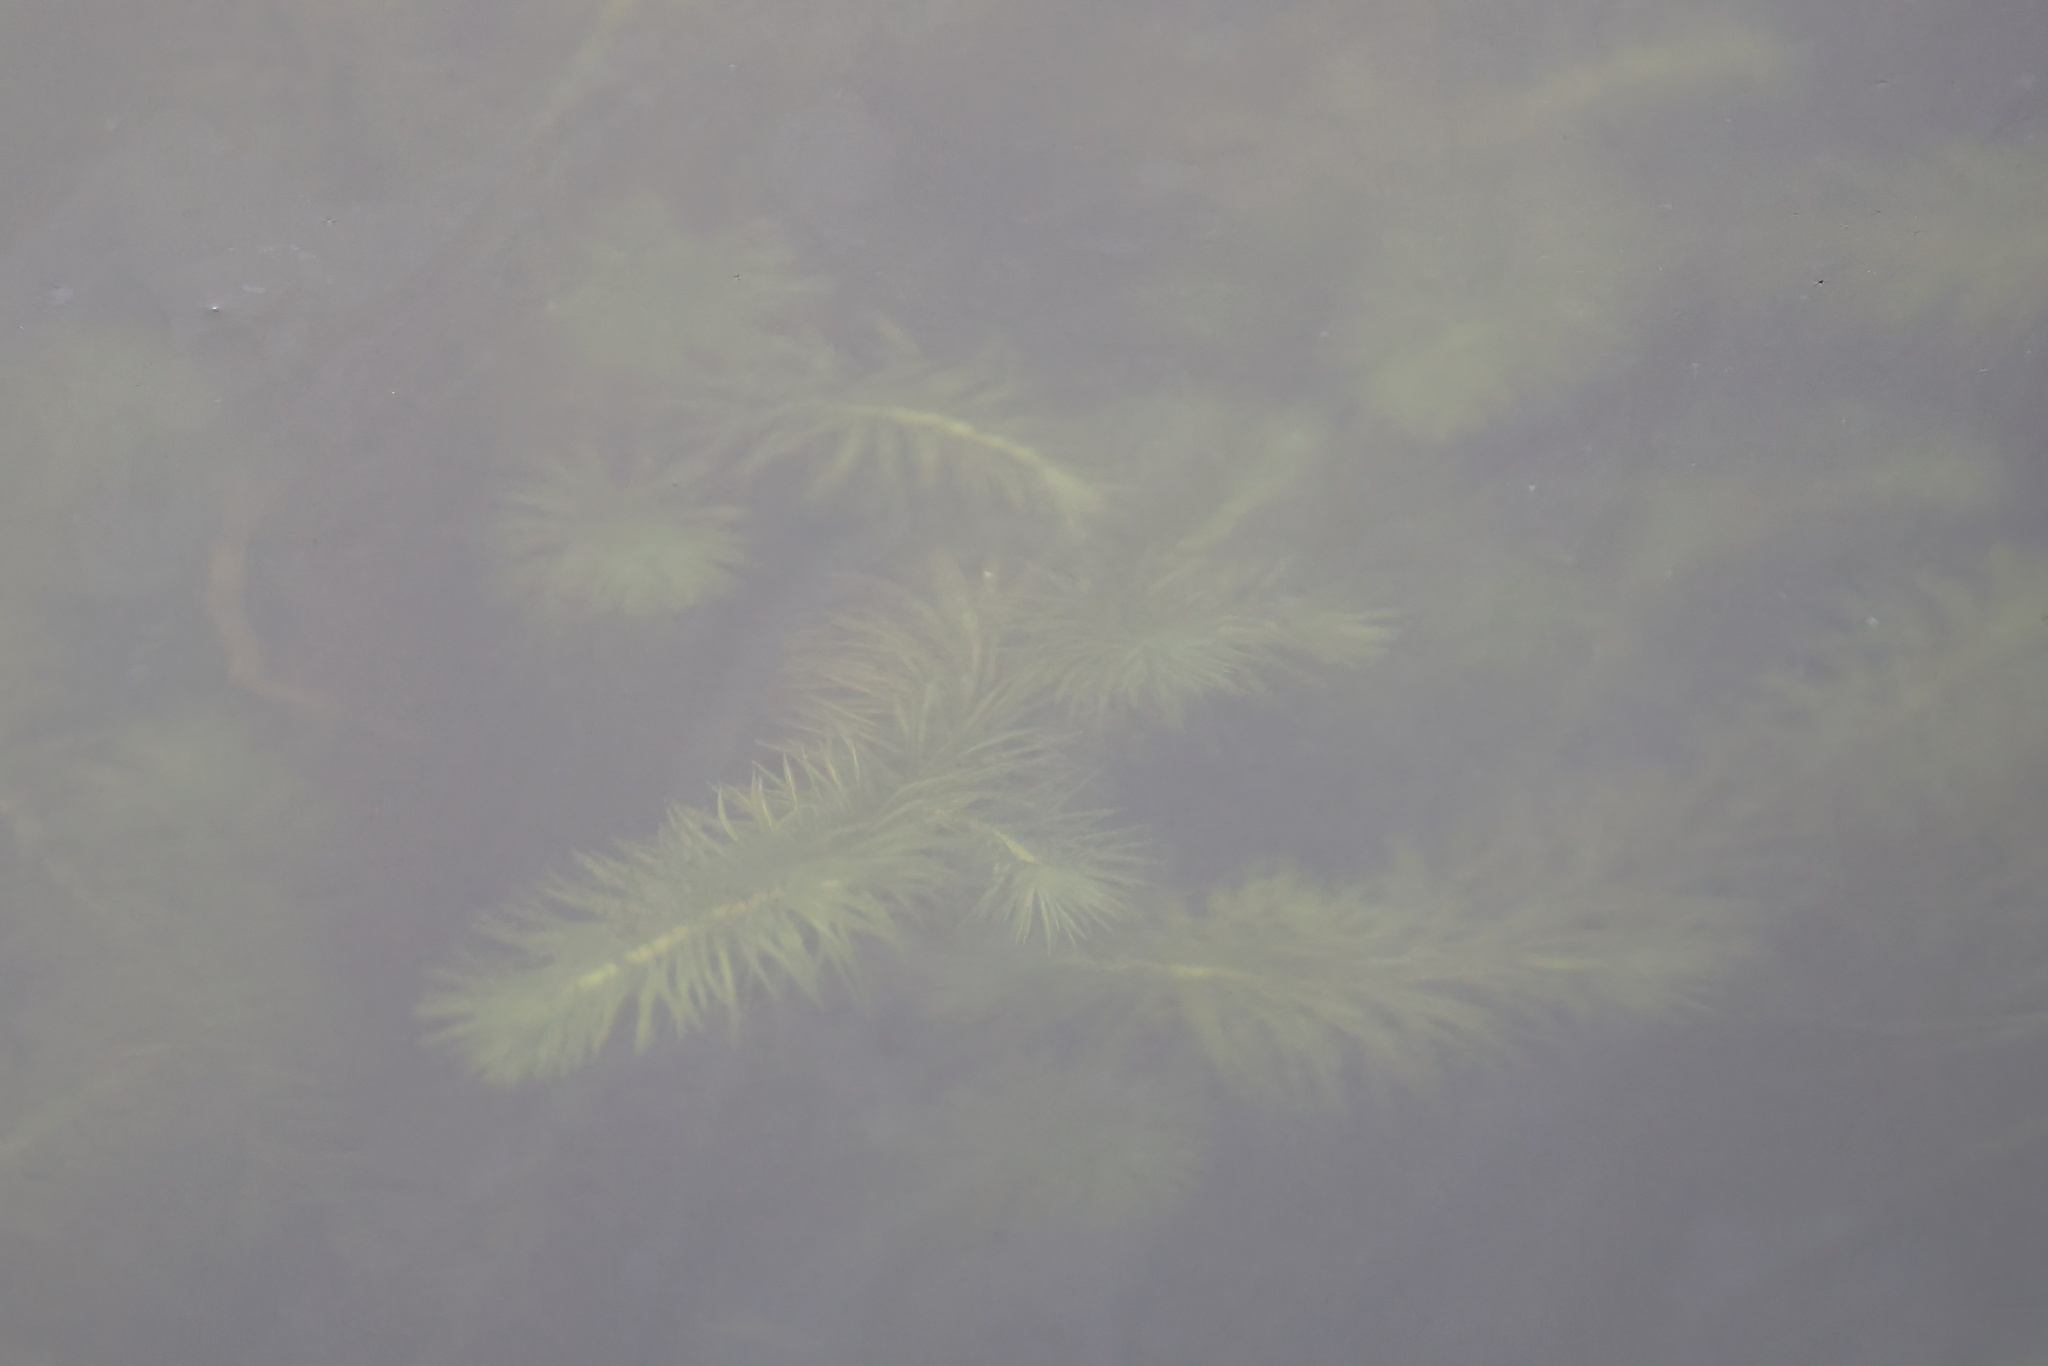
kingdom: Plantae
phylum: Tracheophyta
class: Liliopsida
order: Poales
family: Mayacaceae
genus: Mayaca
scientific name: Mayaca fluviatilis
